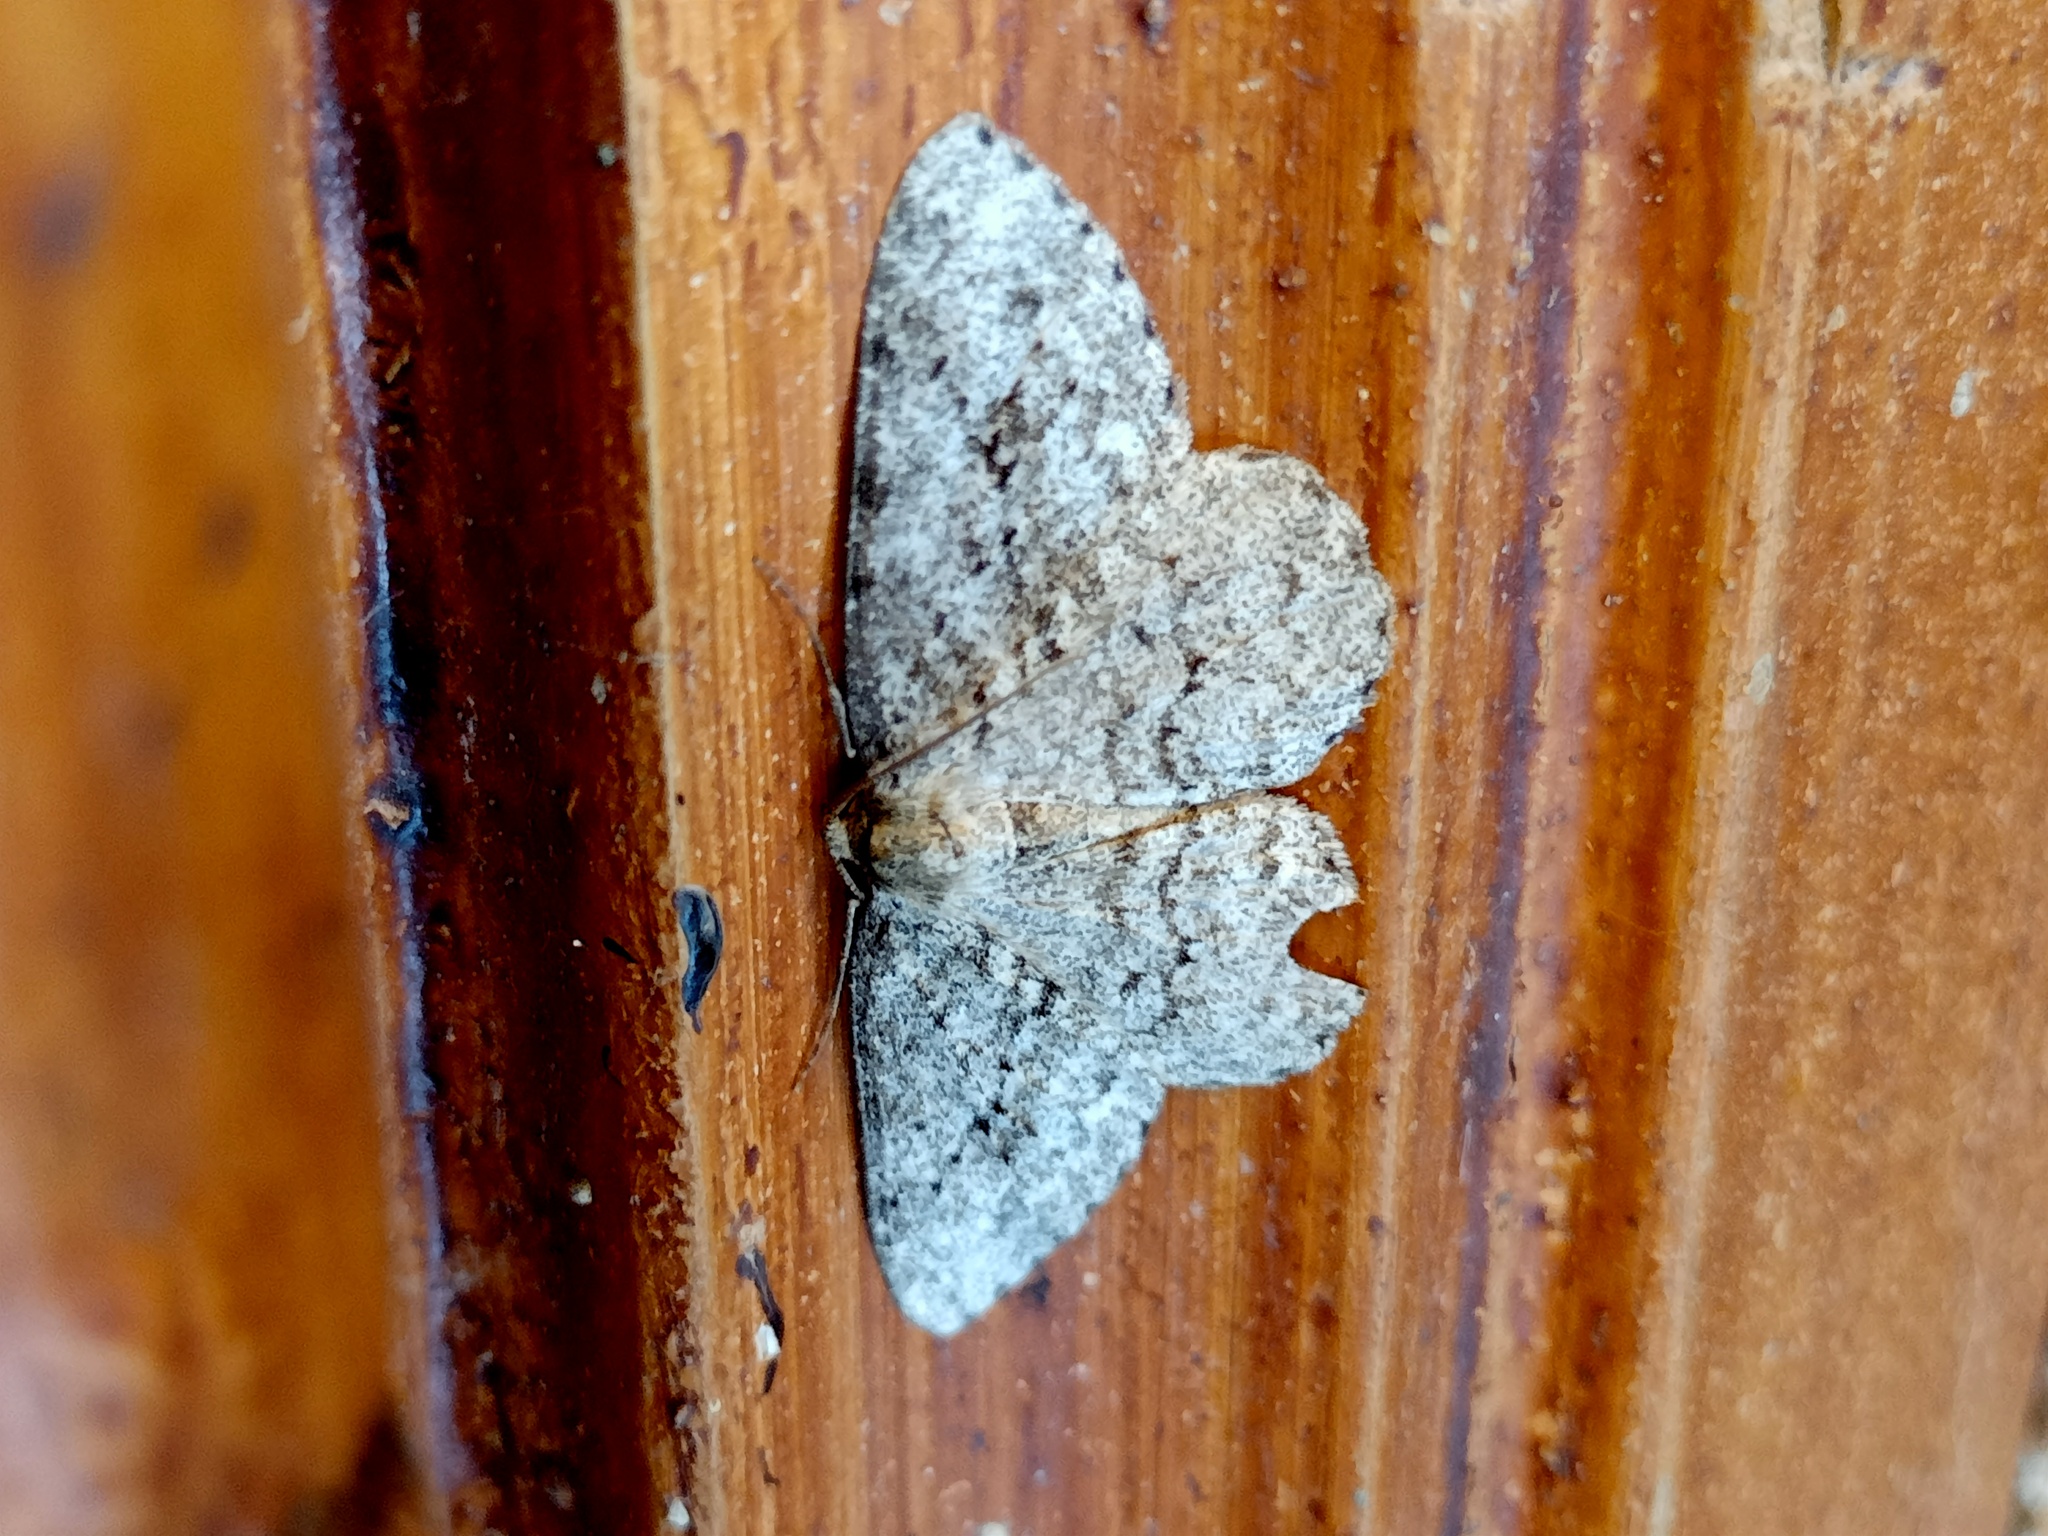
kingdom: Animalia
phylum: Arthropoda
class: Insecta
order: Lepidoptera
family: Geometridae
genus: Ectropis
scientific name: Ectropis crepuscularia
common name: Engrailed
